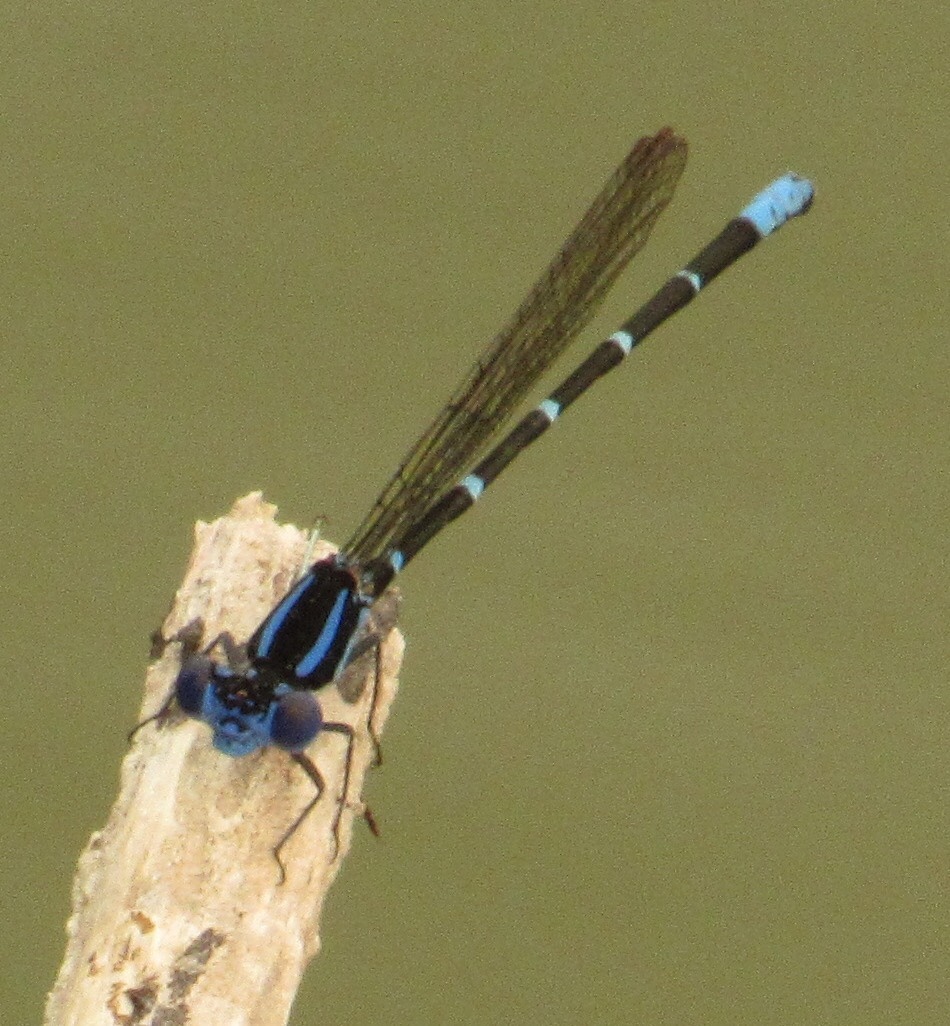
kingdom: Animalia
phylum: Arthropoda
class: Insecta
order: Odonata
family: Coenagrionidae
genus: Argia
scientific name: Argia sedula
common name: Blue-ringed dancer
